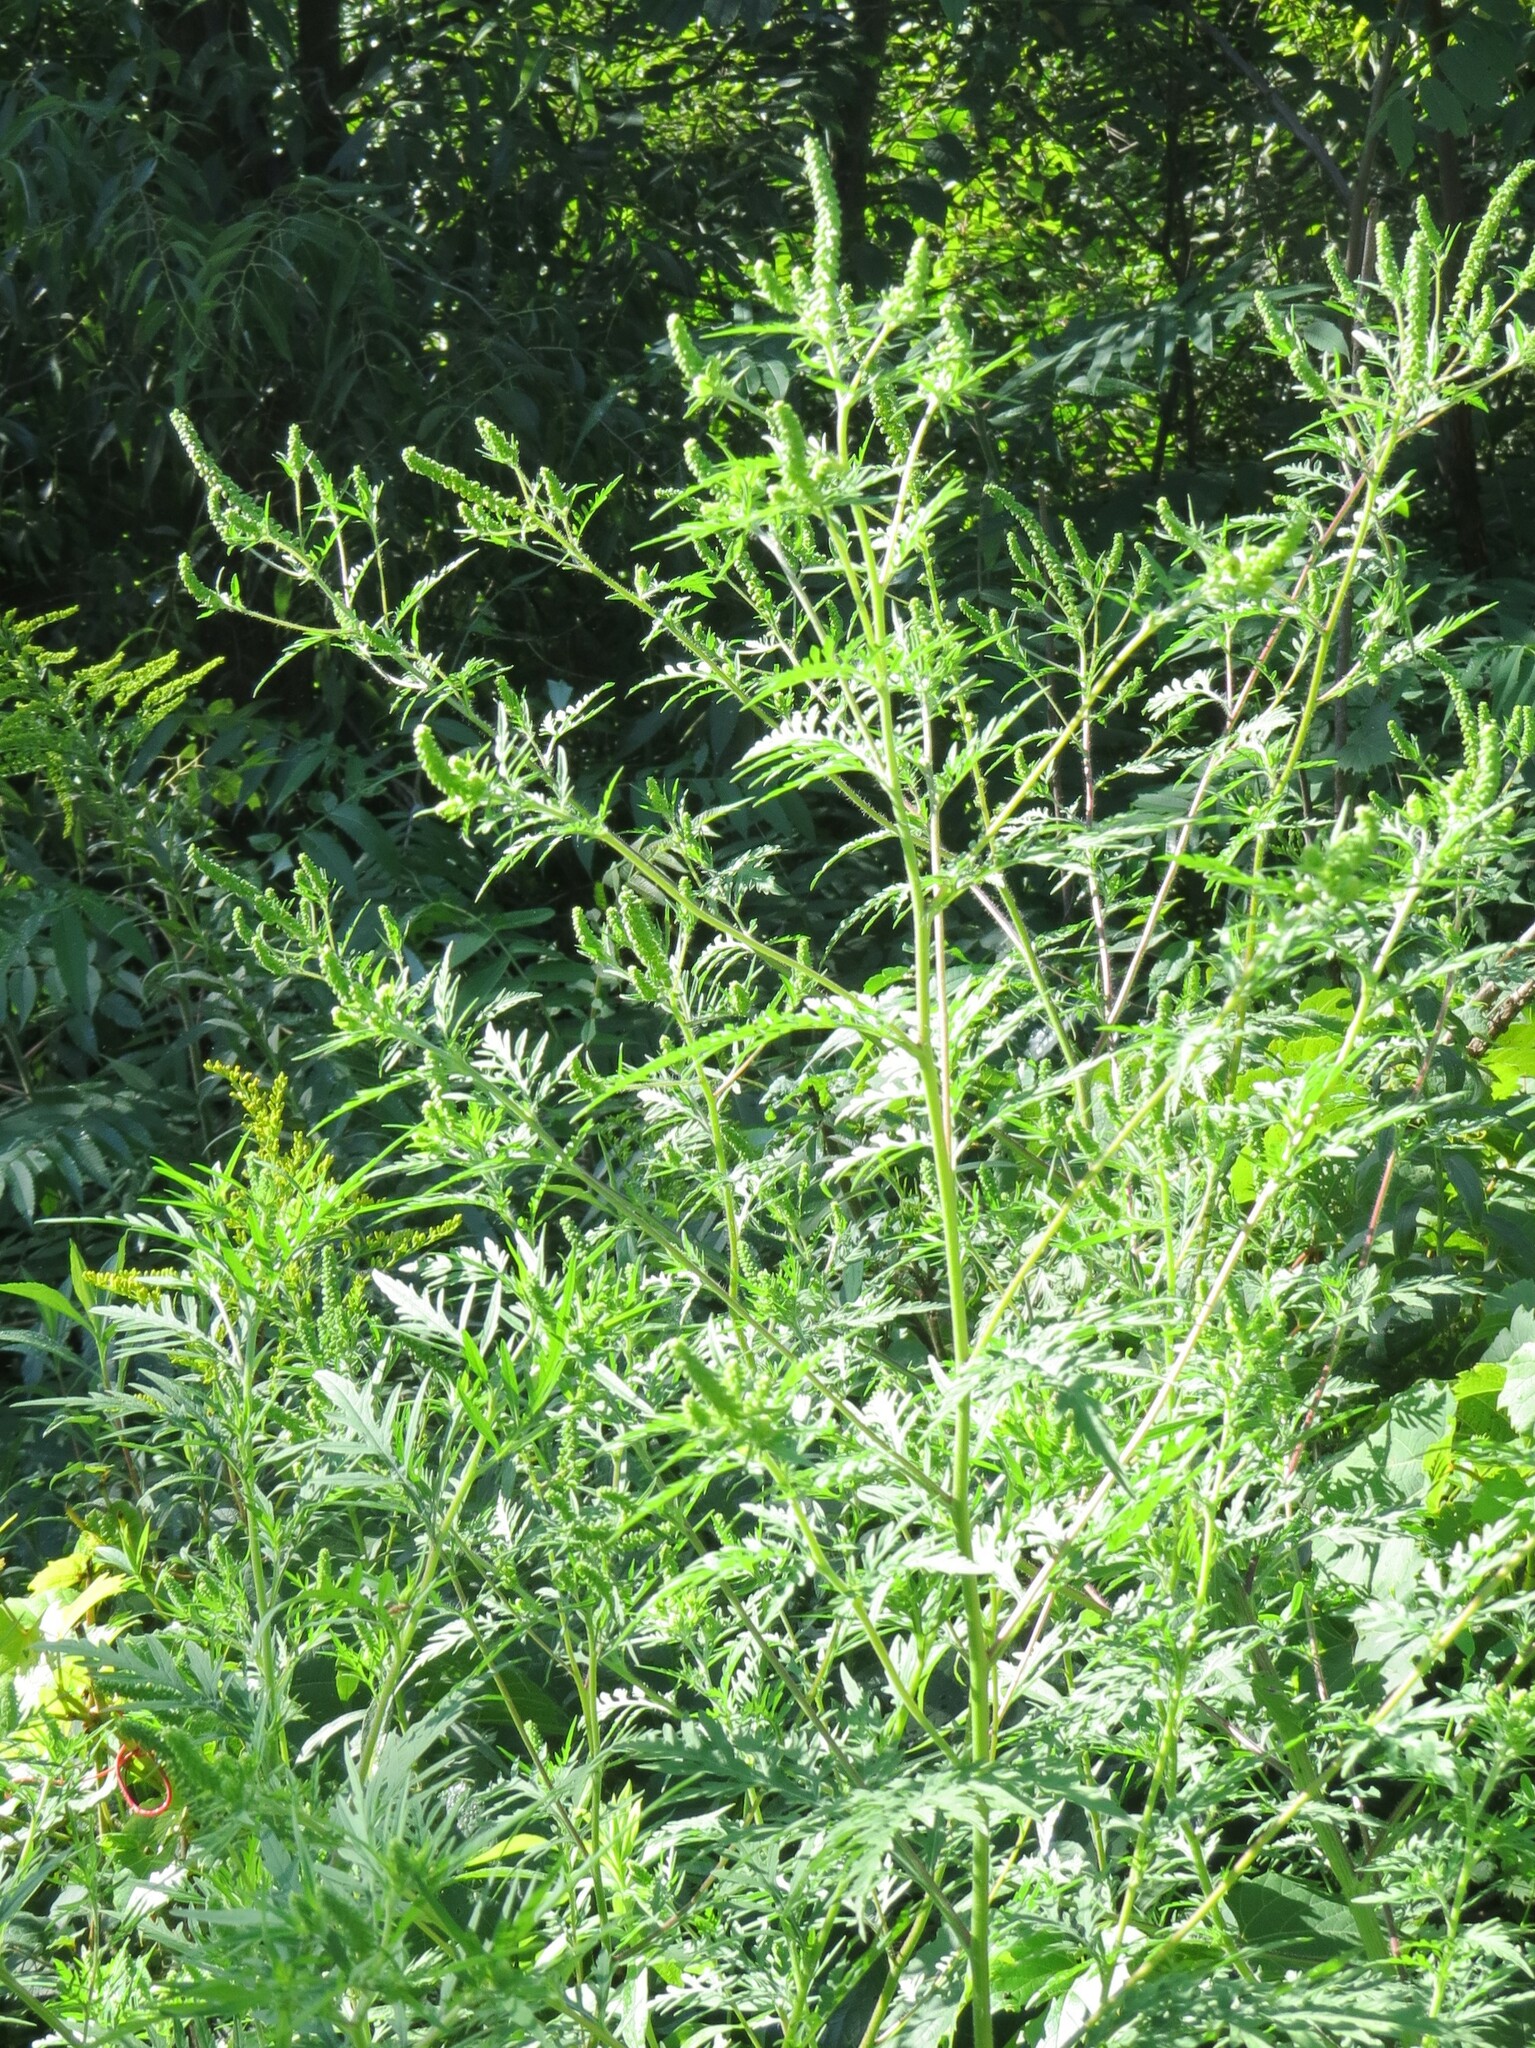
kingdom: Plantae
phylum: Tracheophyta
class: Magnoliopsida
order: Asterales
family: Asteraceae
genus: Ambrosia
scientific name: Ambrosia artemisiifolia
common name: Annual ragweed
